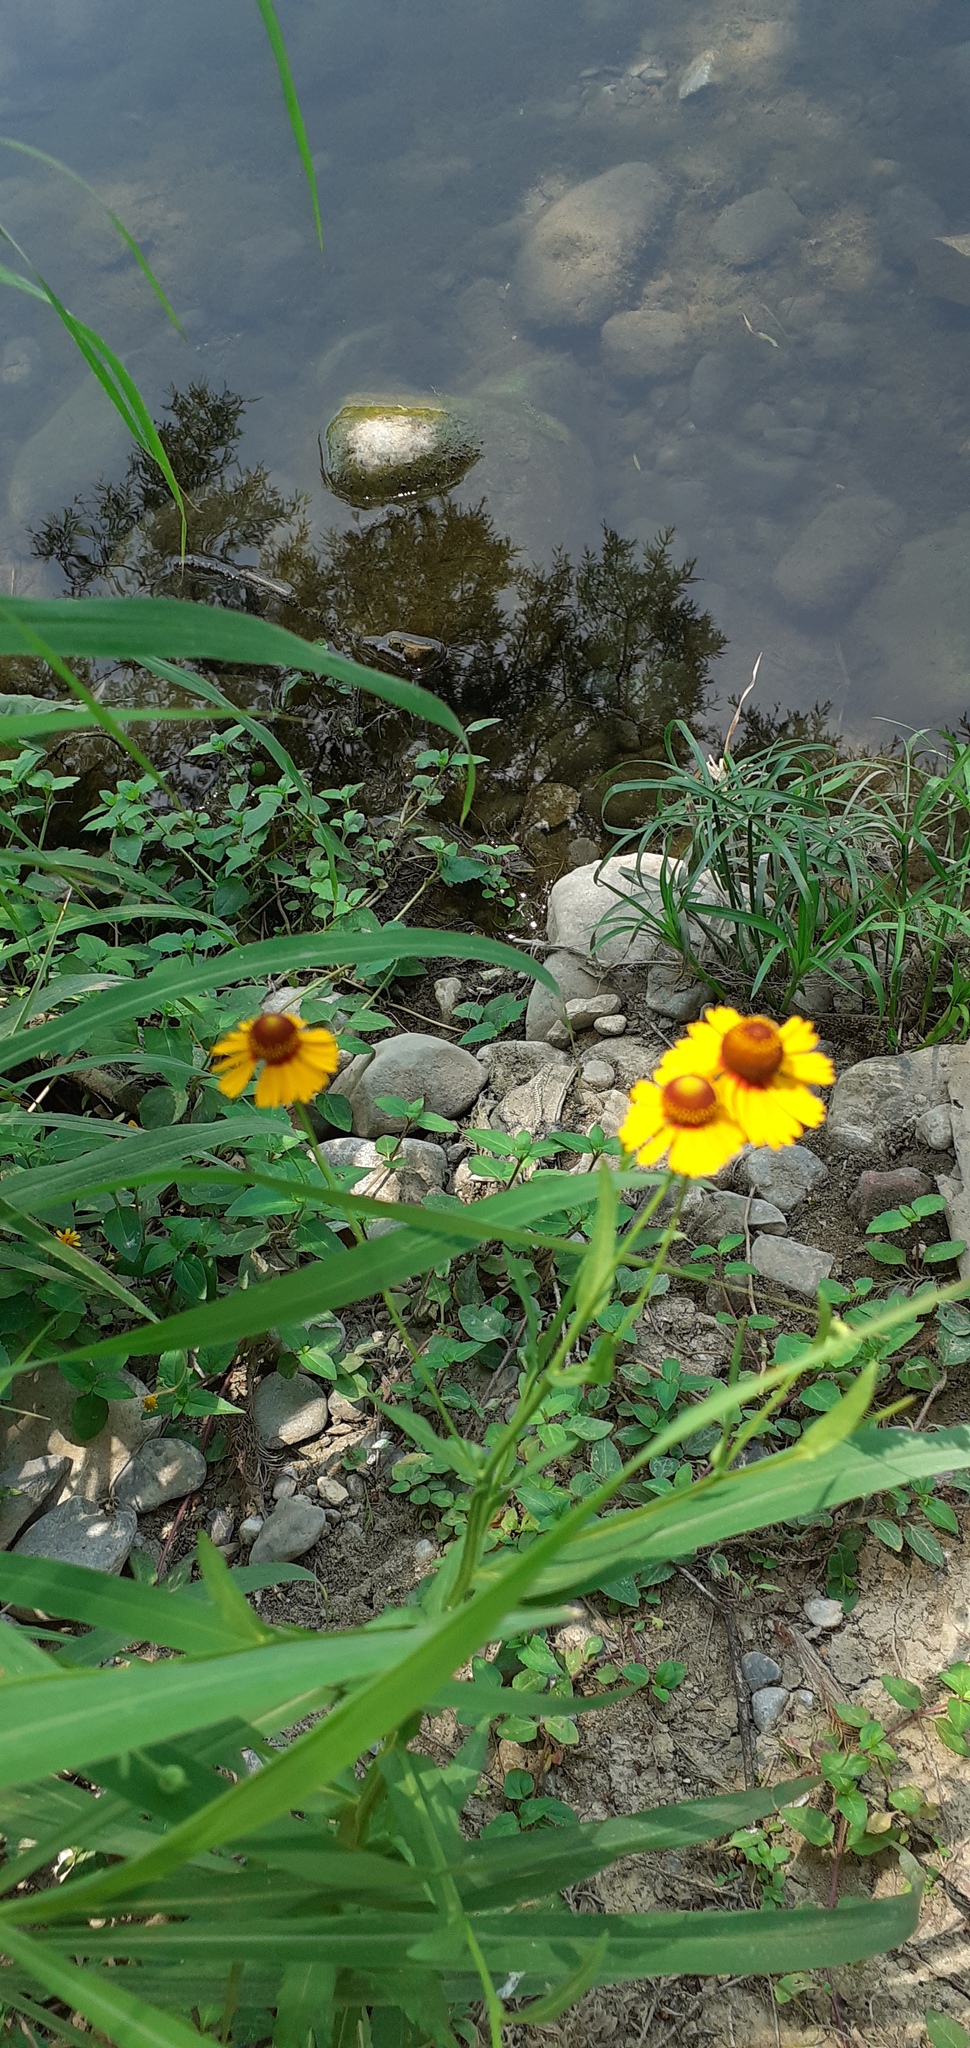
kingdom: Plantae
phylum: Tracheophyta
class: Magnoliopsida
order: Asterales
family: Asteraceae
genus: Helenium
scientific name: Helenium amphibolum
